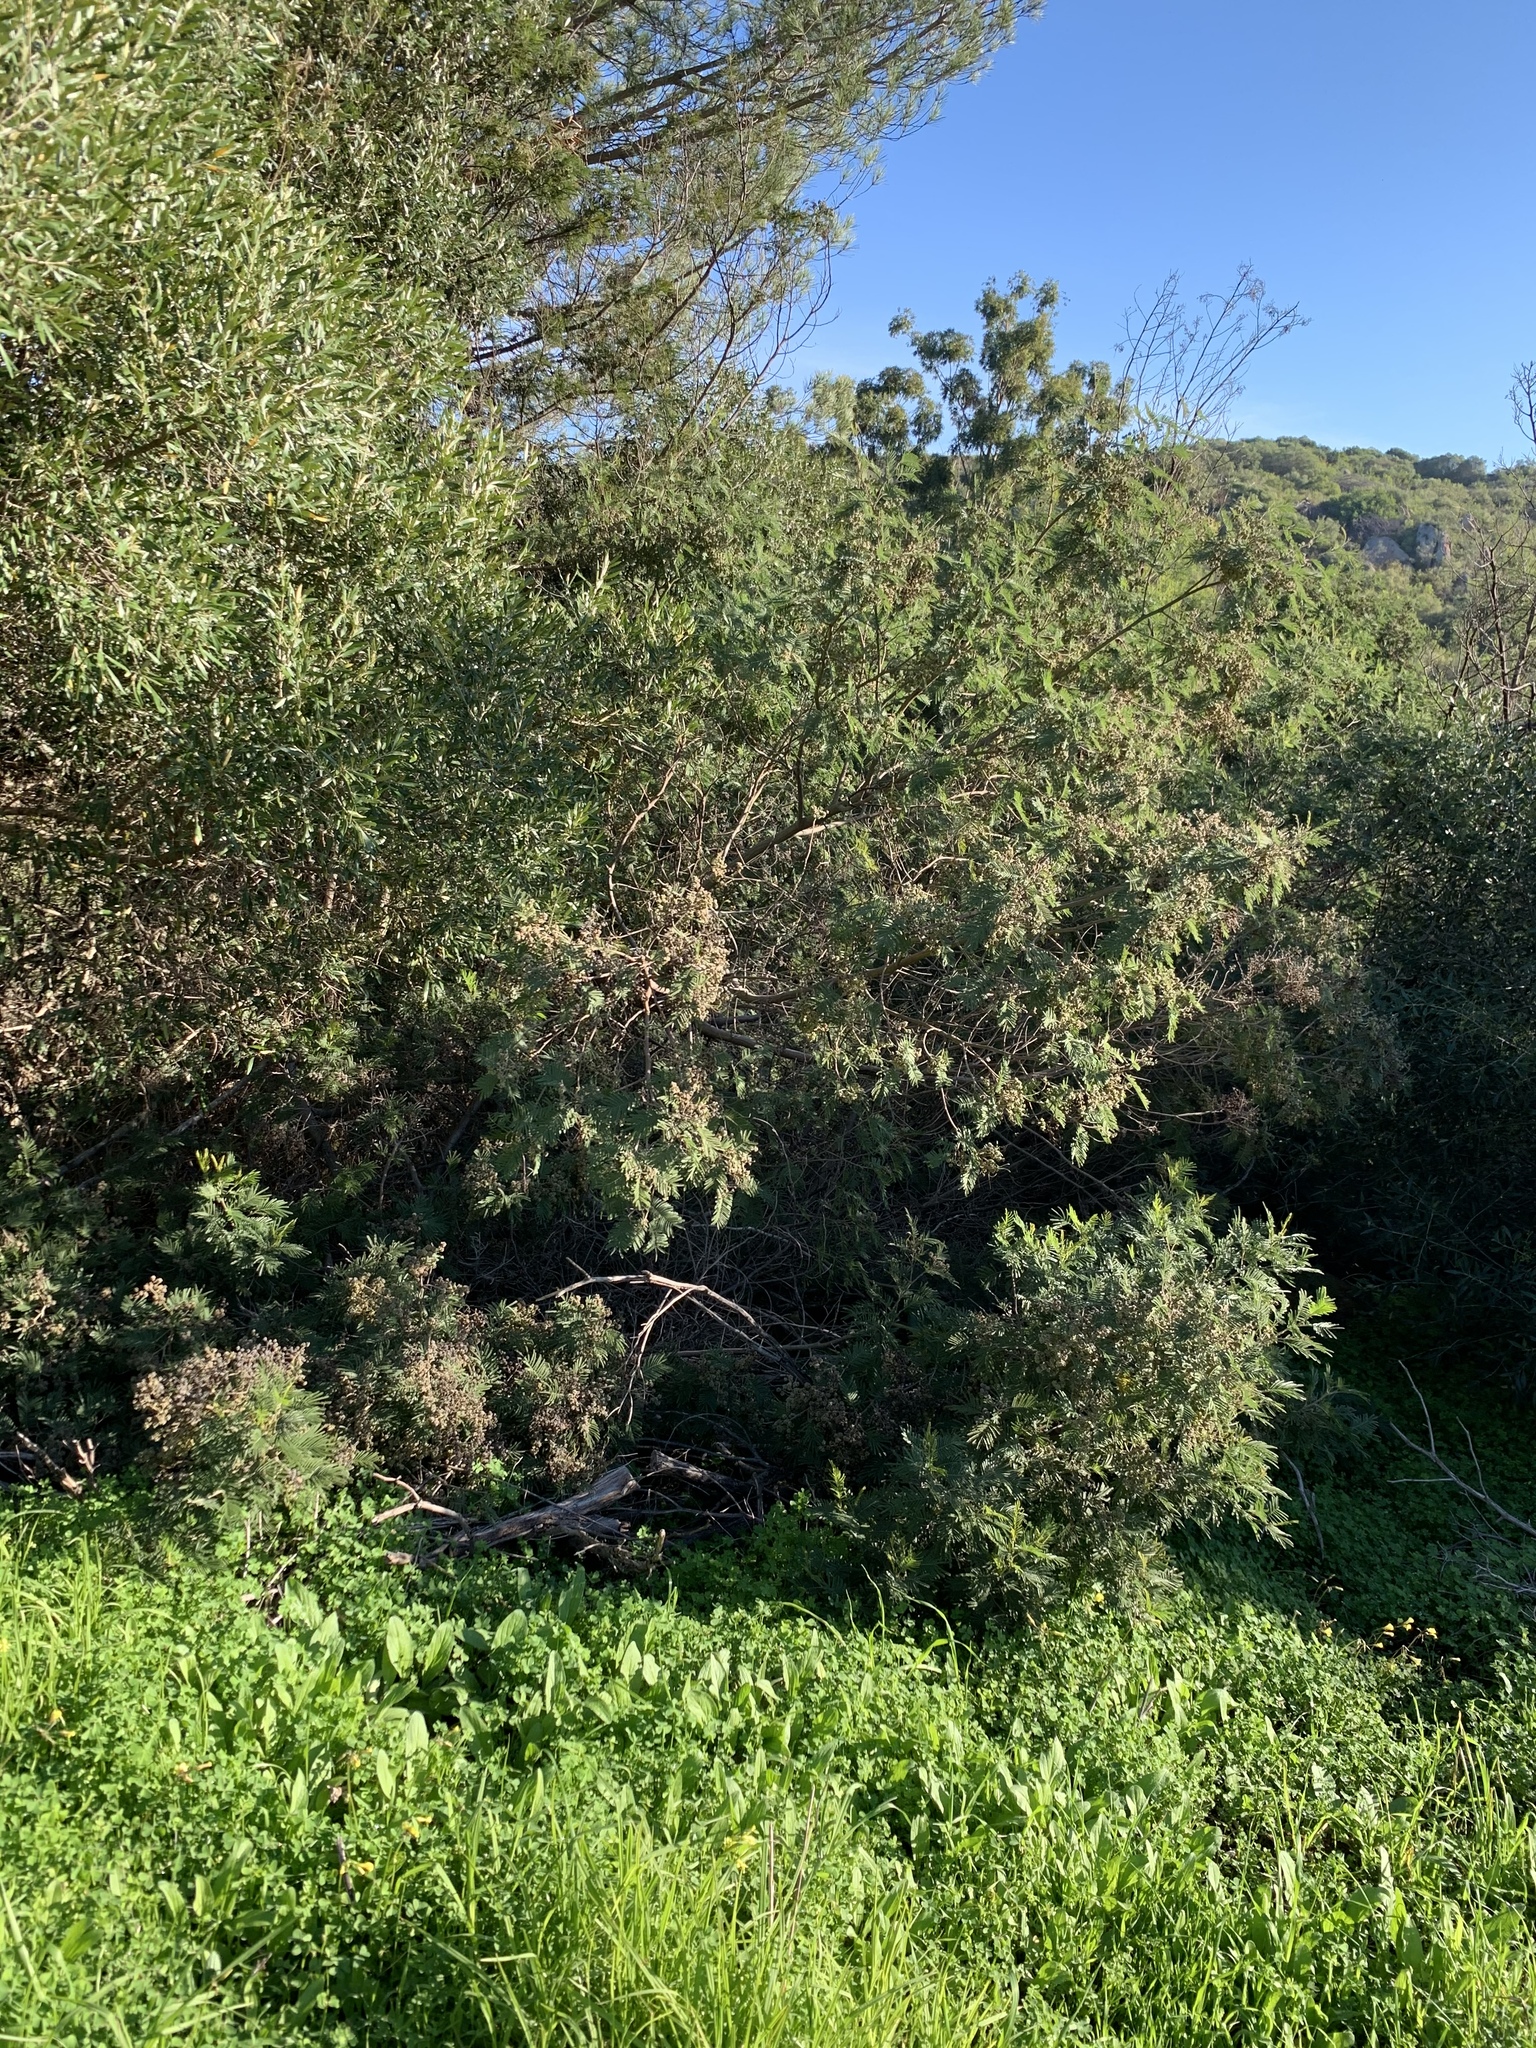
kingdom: Plantae
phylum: Tracheophyta
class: Magnoliopsida
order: Fabales
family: Fabaceae
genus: Acacia
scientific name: Acacia mearnsii
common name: Black wattle
